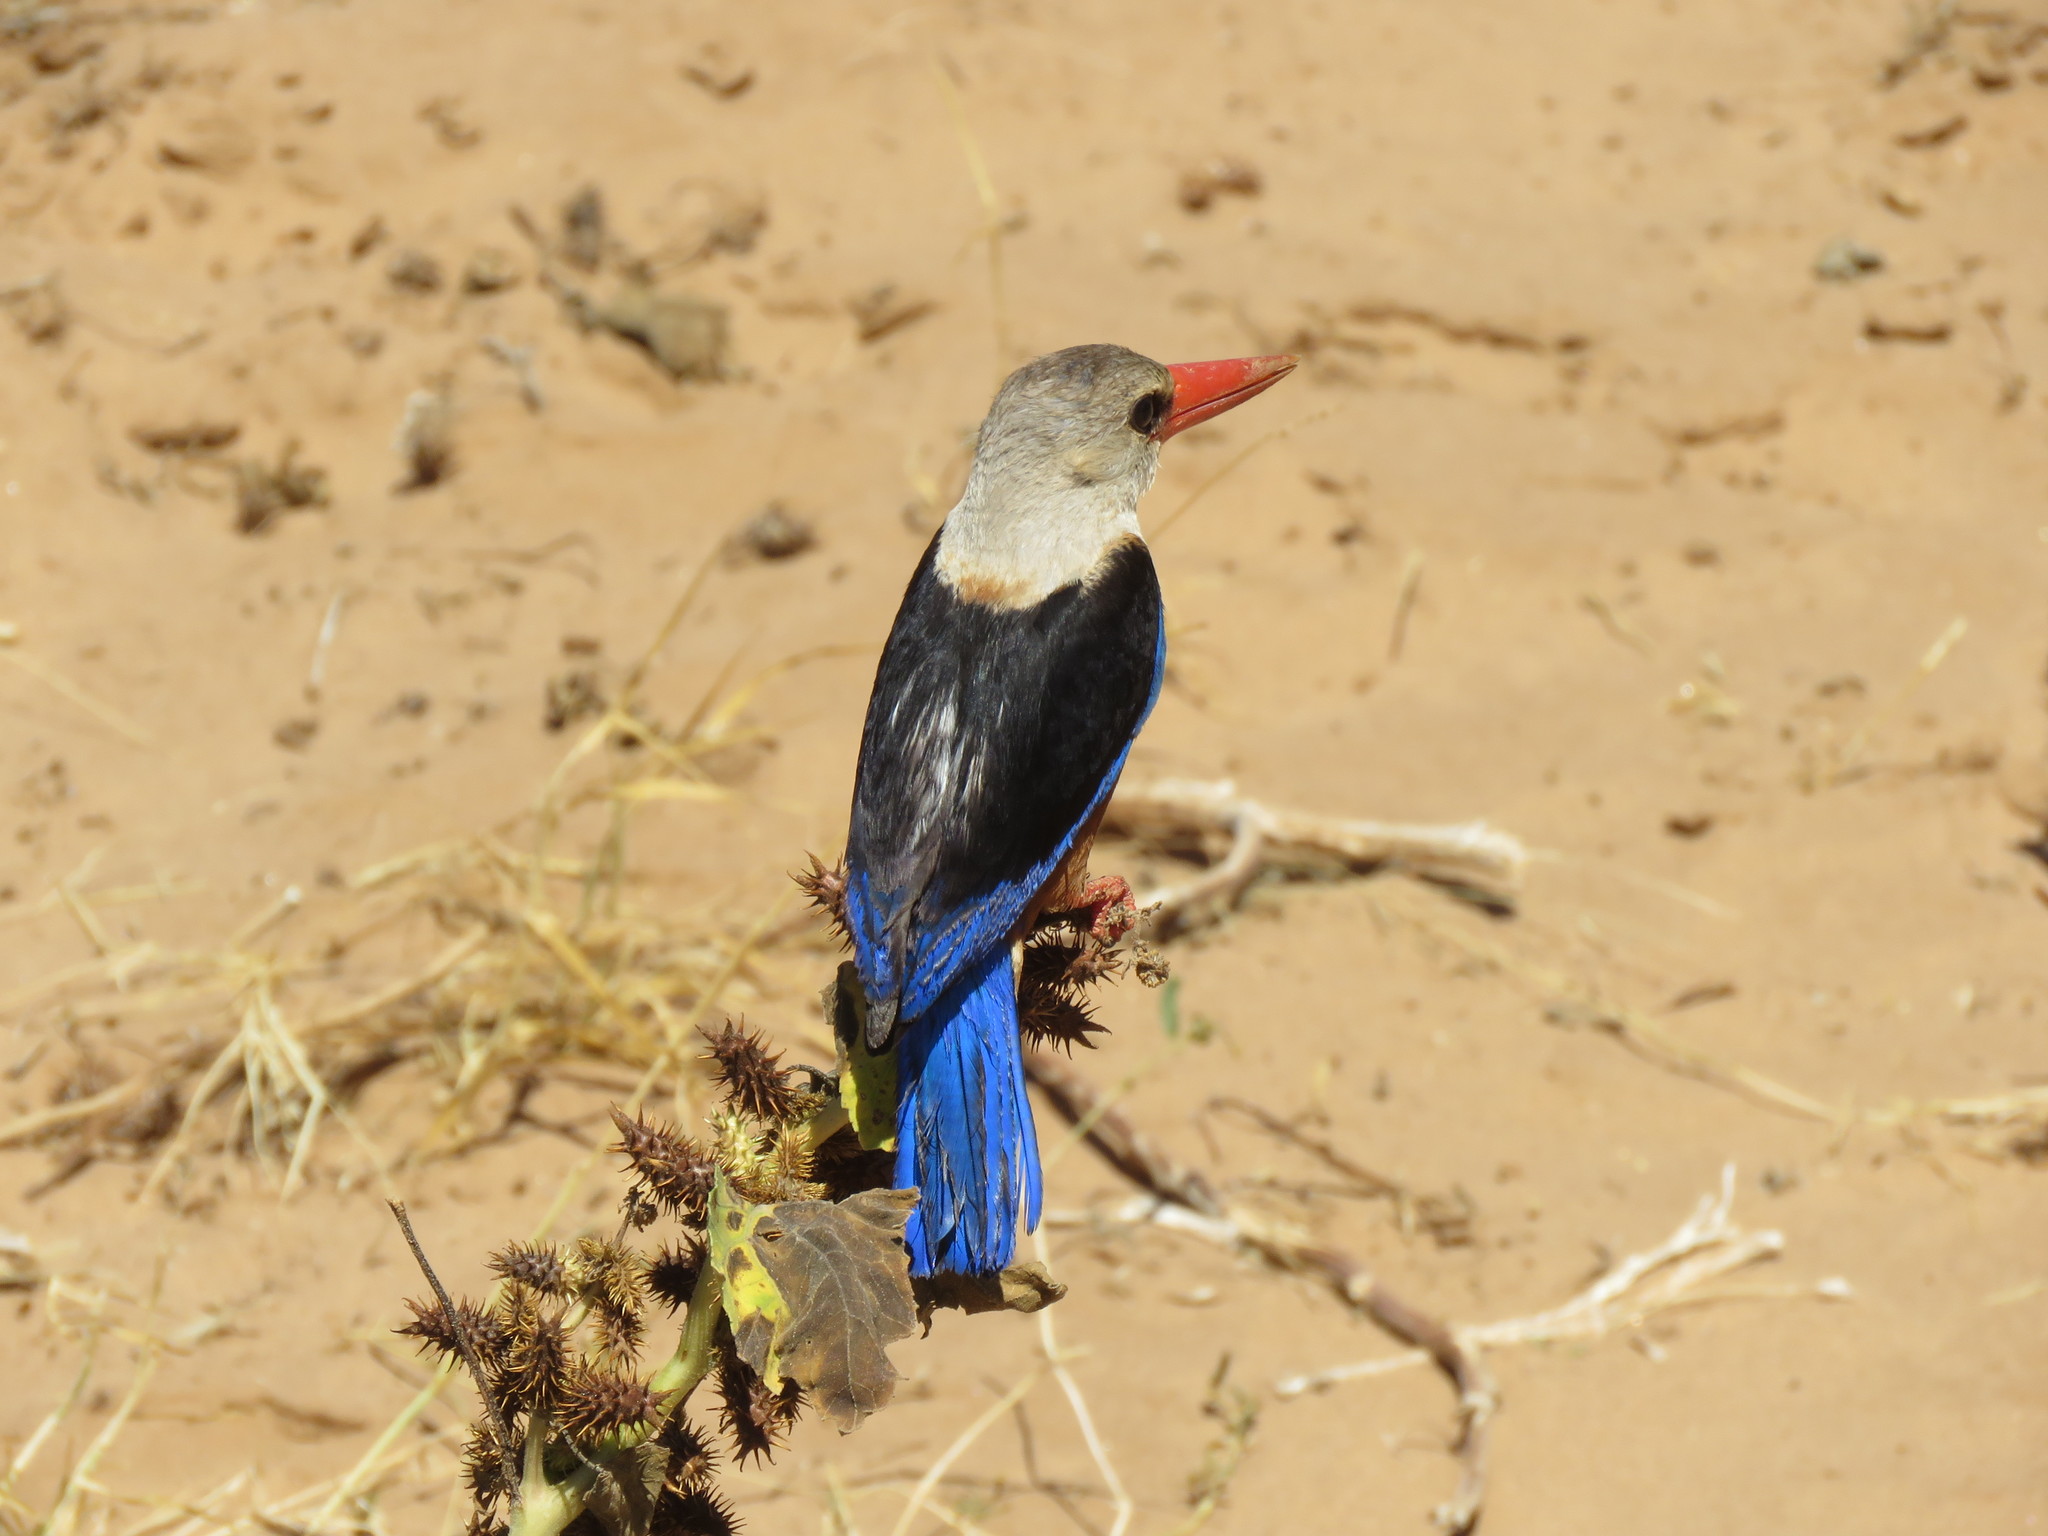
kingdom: Animalia
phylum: Chordata
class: Aves
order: Coraciiformes
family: Alcedinidae
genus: Halcyon
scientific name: Halcyon leucocephala
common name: Grey-headed kingfisher
